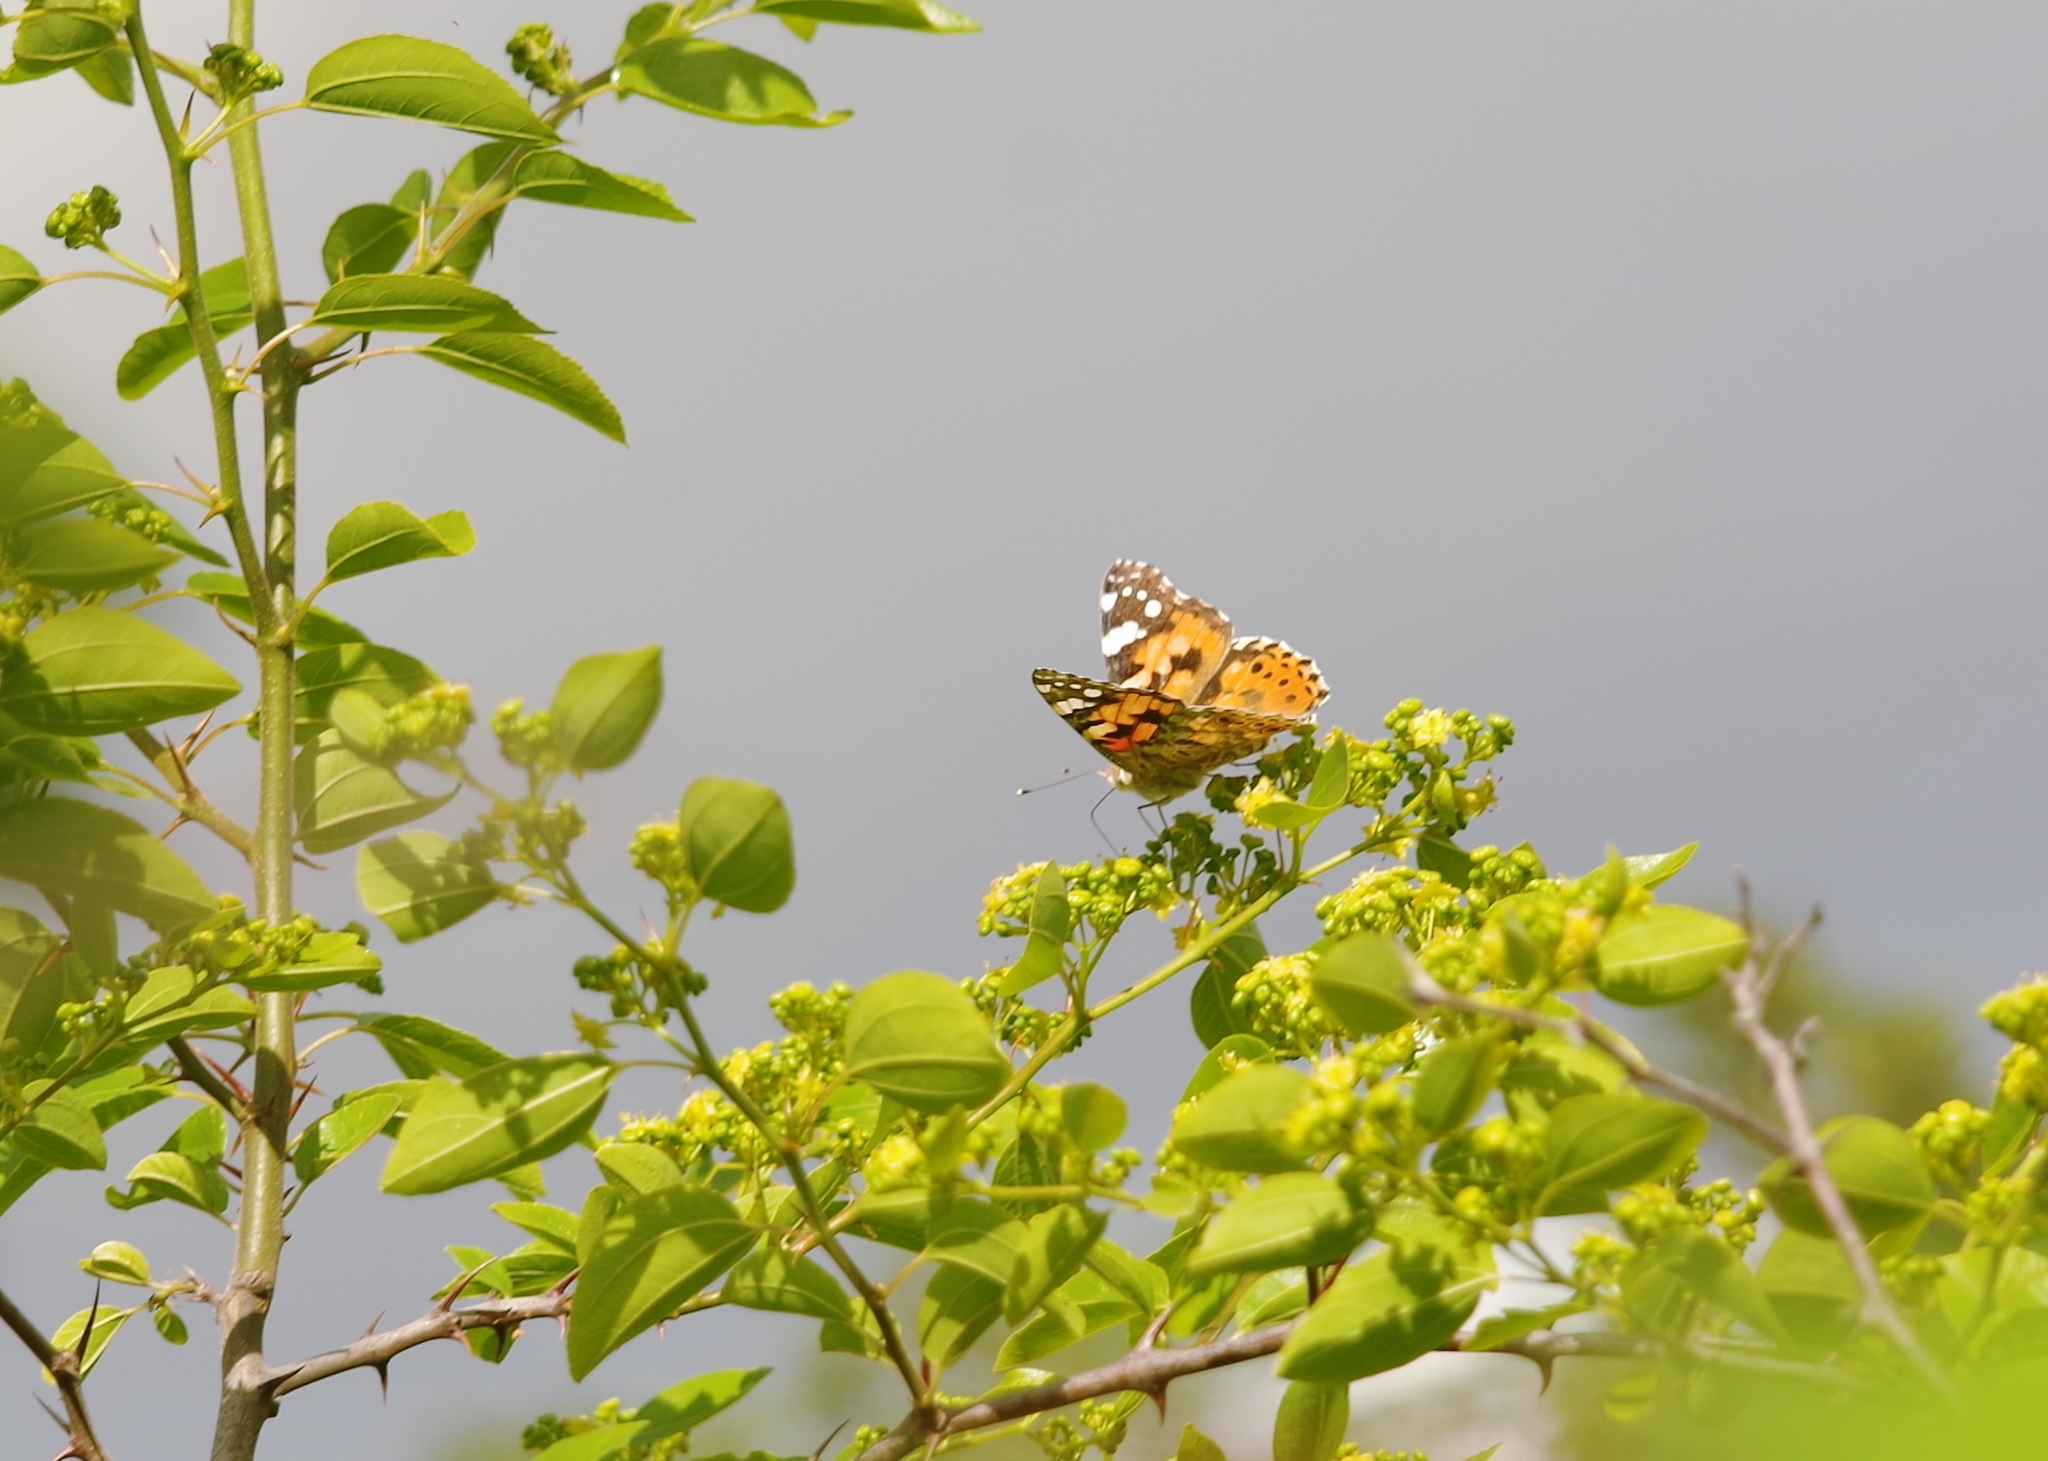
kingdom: Animalia
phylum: Arthropoda
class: Insecta
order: Lepidoptera
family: Nymphalidae
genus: Vanessa
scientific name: Vanessa cardui
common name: Painted lady
